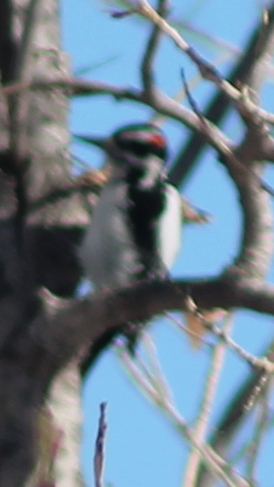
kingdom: Animalia
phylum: Chordata
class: Aves
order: Piciformes
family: Picidae
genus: Leuconotopicus
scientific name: Leuconotopicus villosus
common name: Hairy woodpecker
